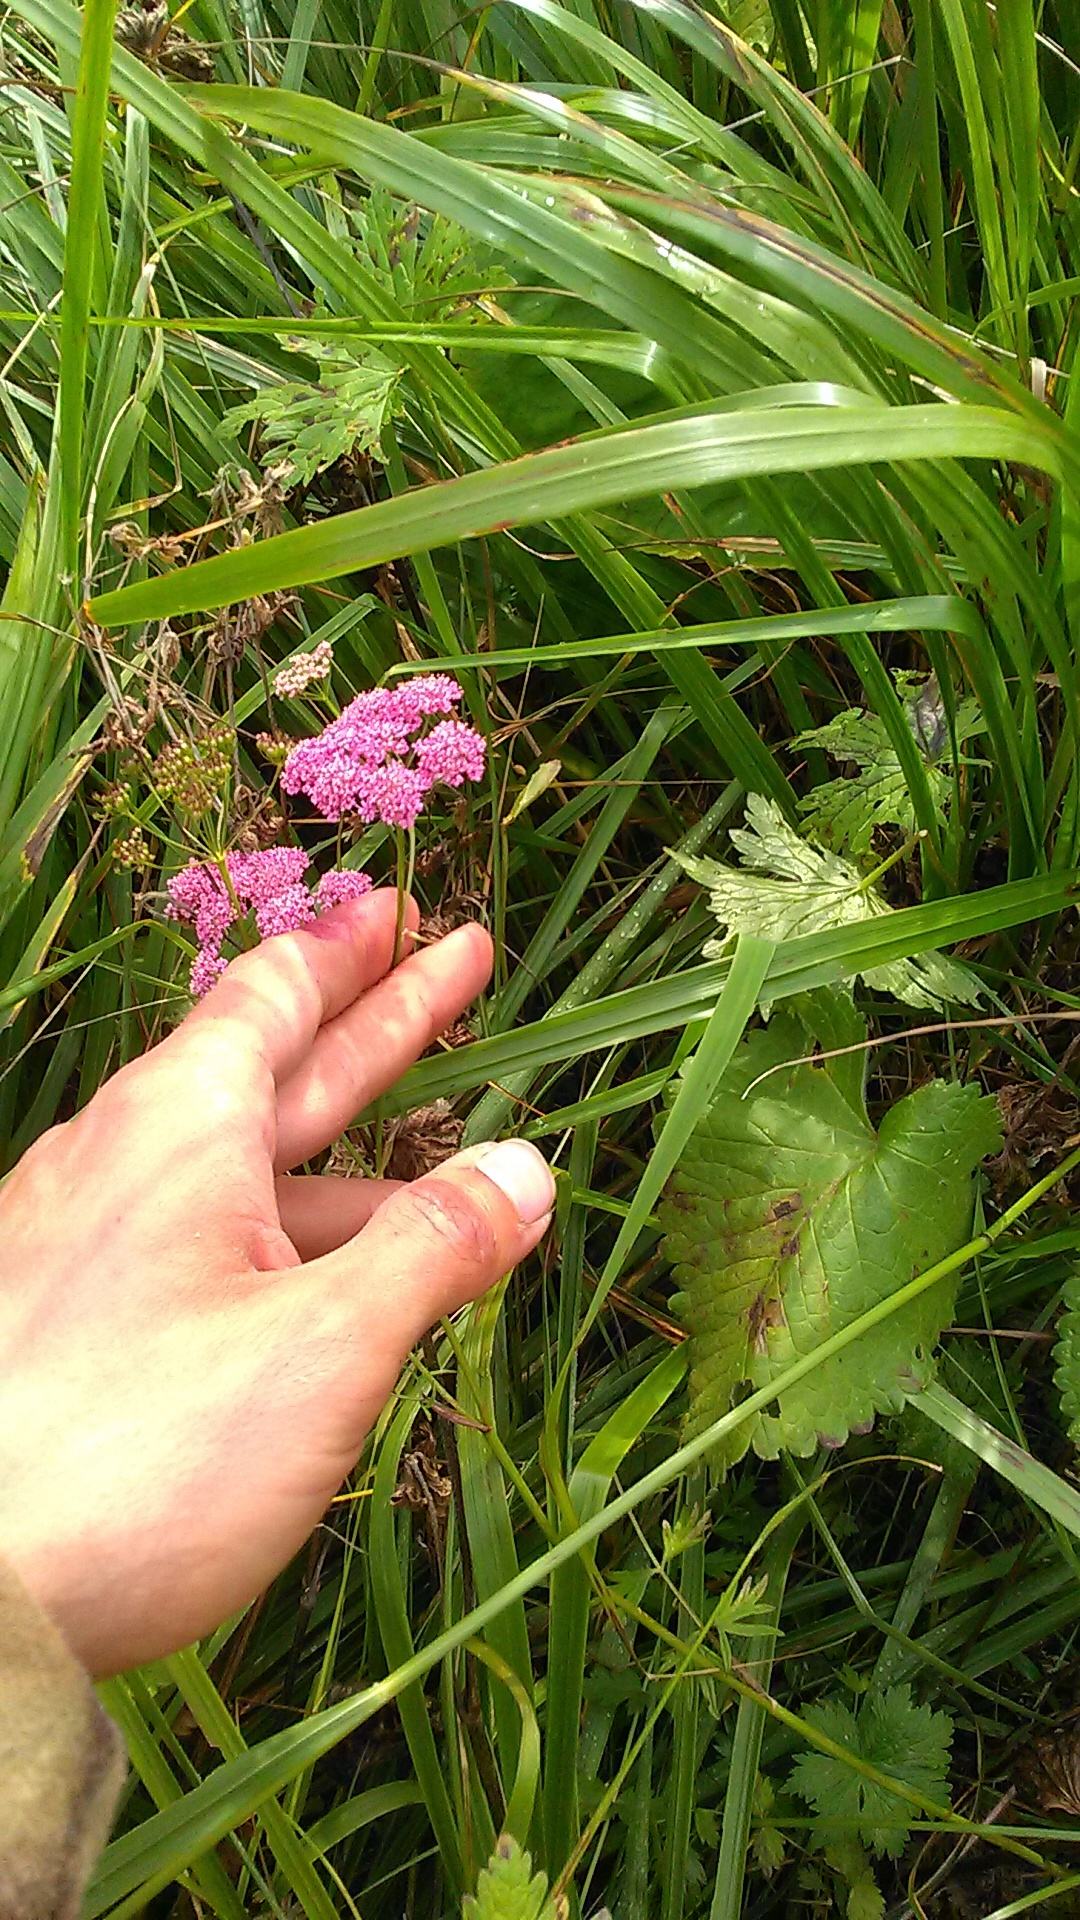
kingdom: Plantae
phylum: Tracheophyta
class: Magnoliopsida
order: Apiales
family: Apiaceae
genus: Pimpinella
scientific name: Pimpinella rhodantha
